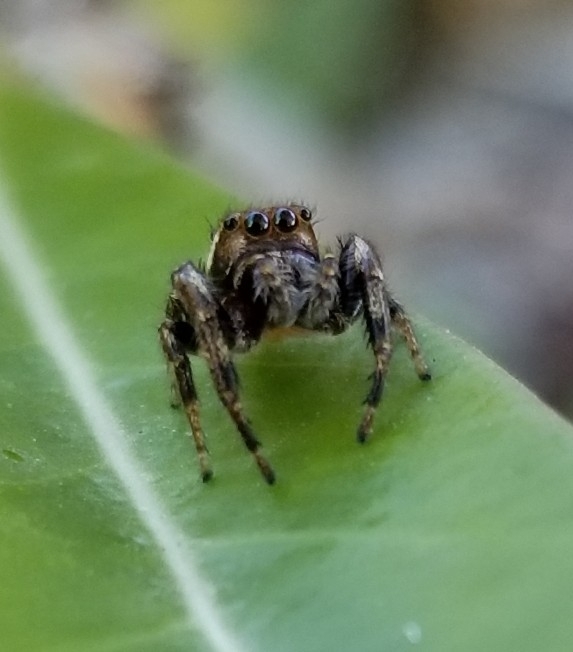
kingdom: Animalia
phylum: Arthropoda
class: Arachnida
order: Araneae
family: Salticidae
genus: Eris
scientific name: Eris militaris
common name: Bronze jumper
